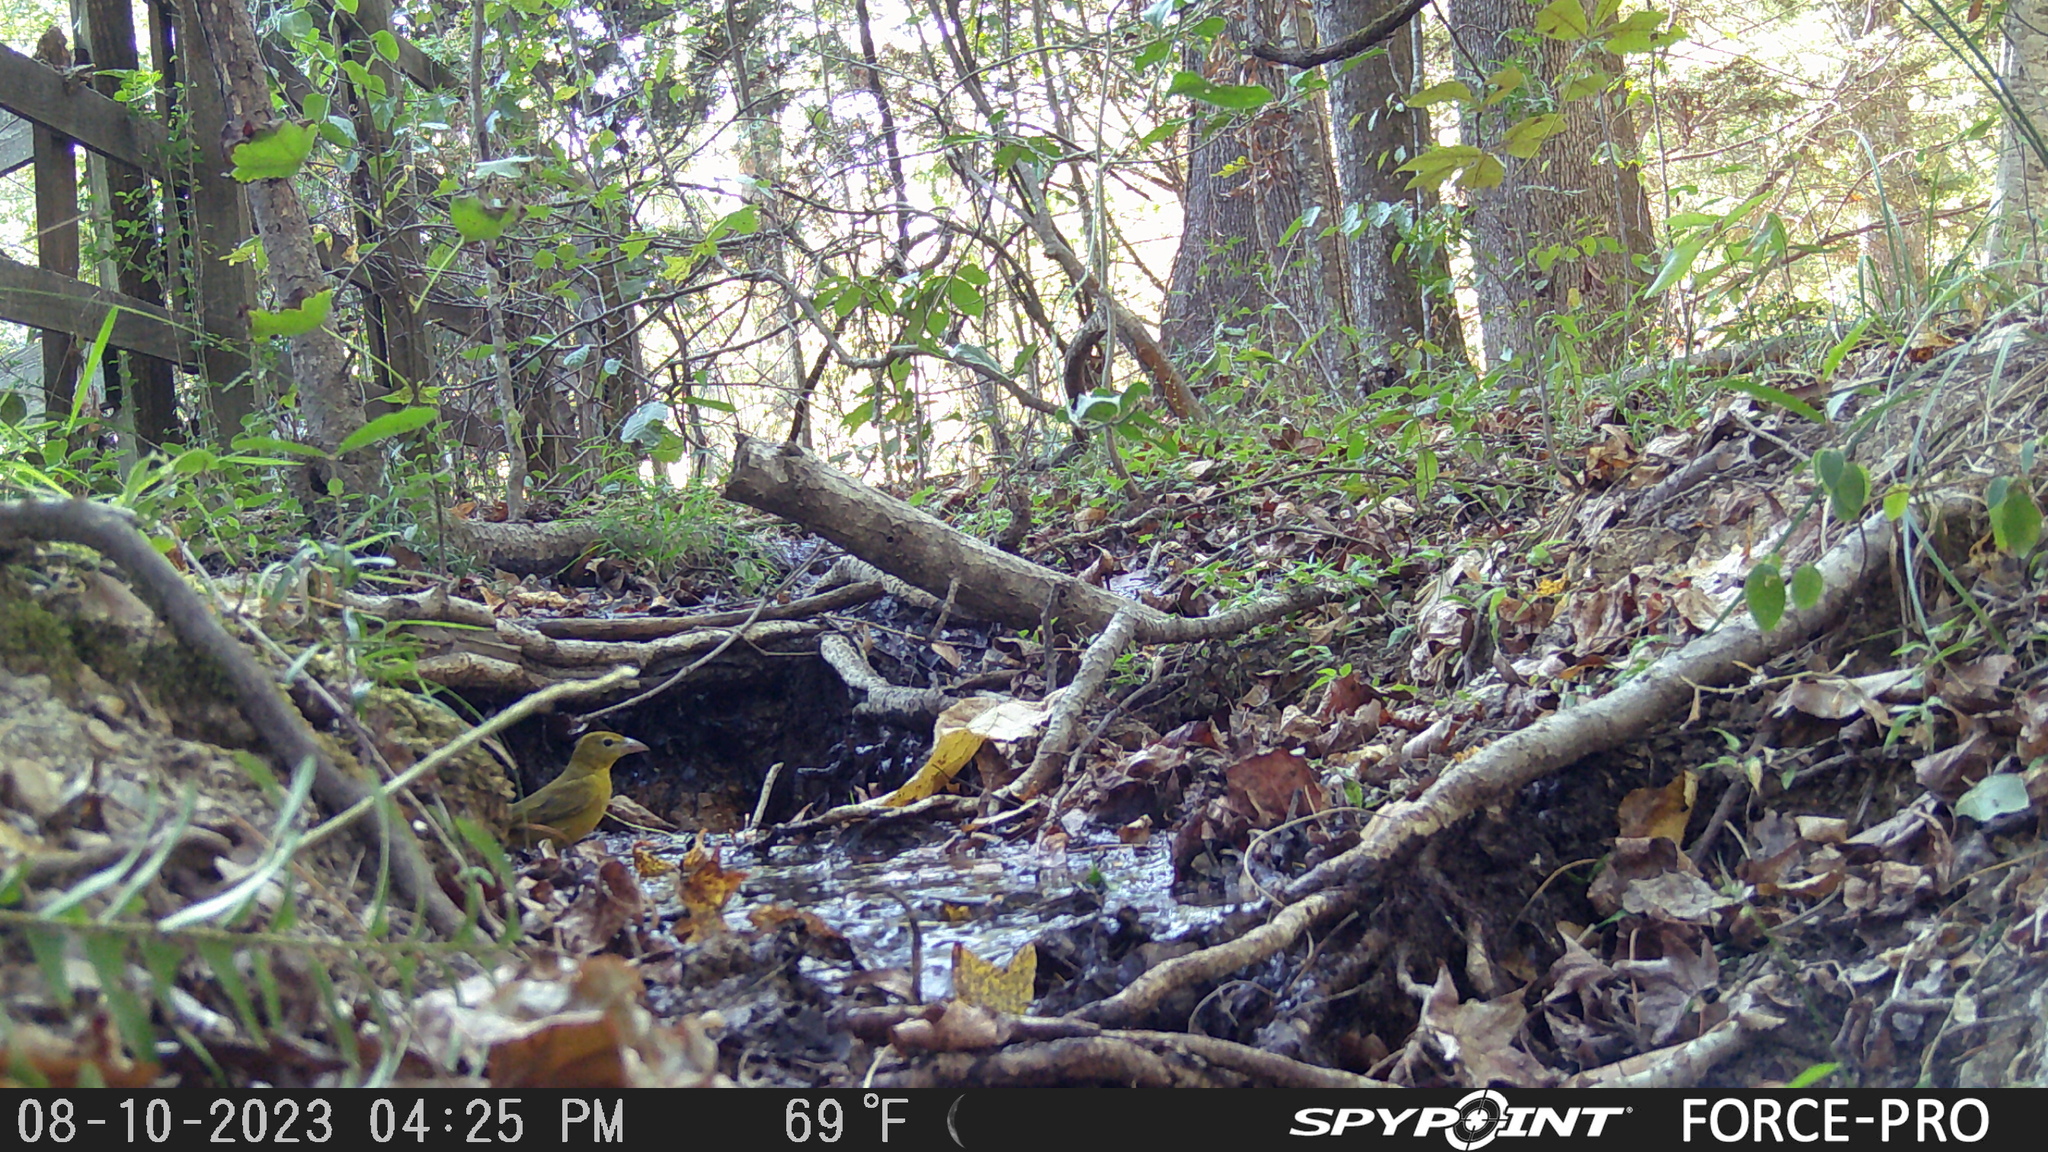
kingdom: Animalia
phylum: Chordata
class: Aves
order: Passeriformes
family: Cardinalidae
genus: Piranga
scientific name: Piranga rubra
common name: Summer tanager
